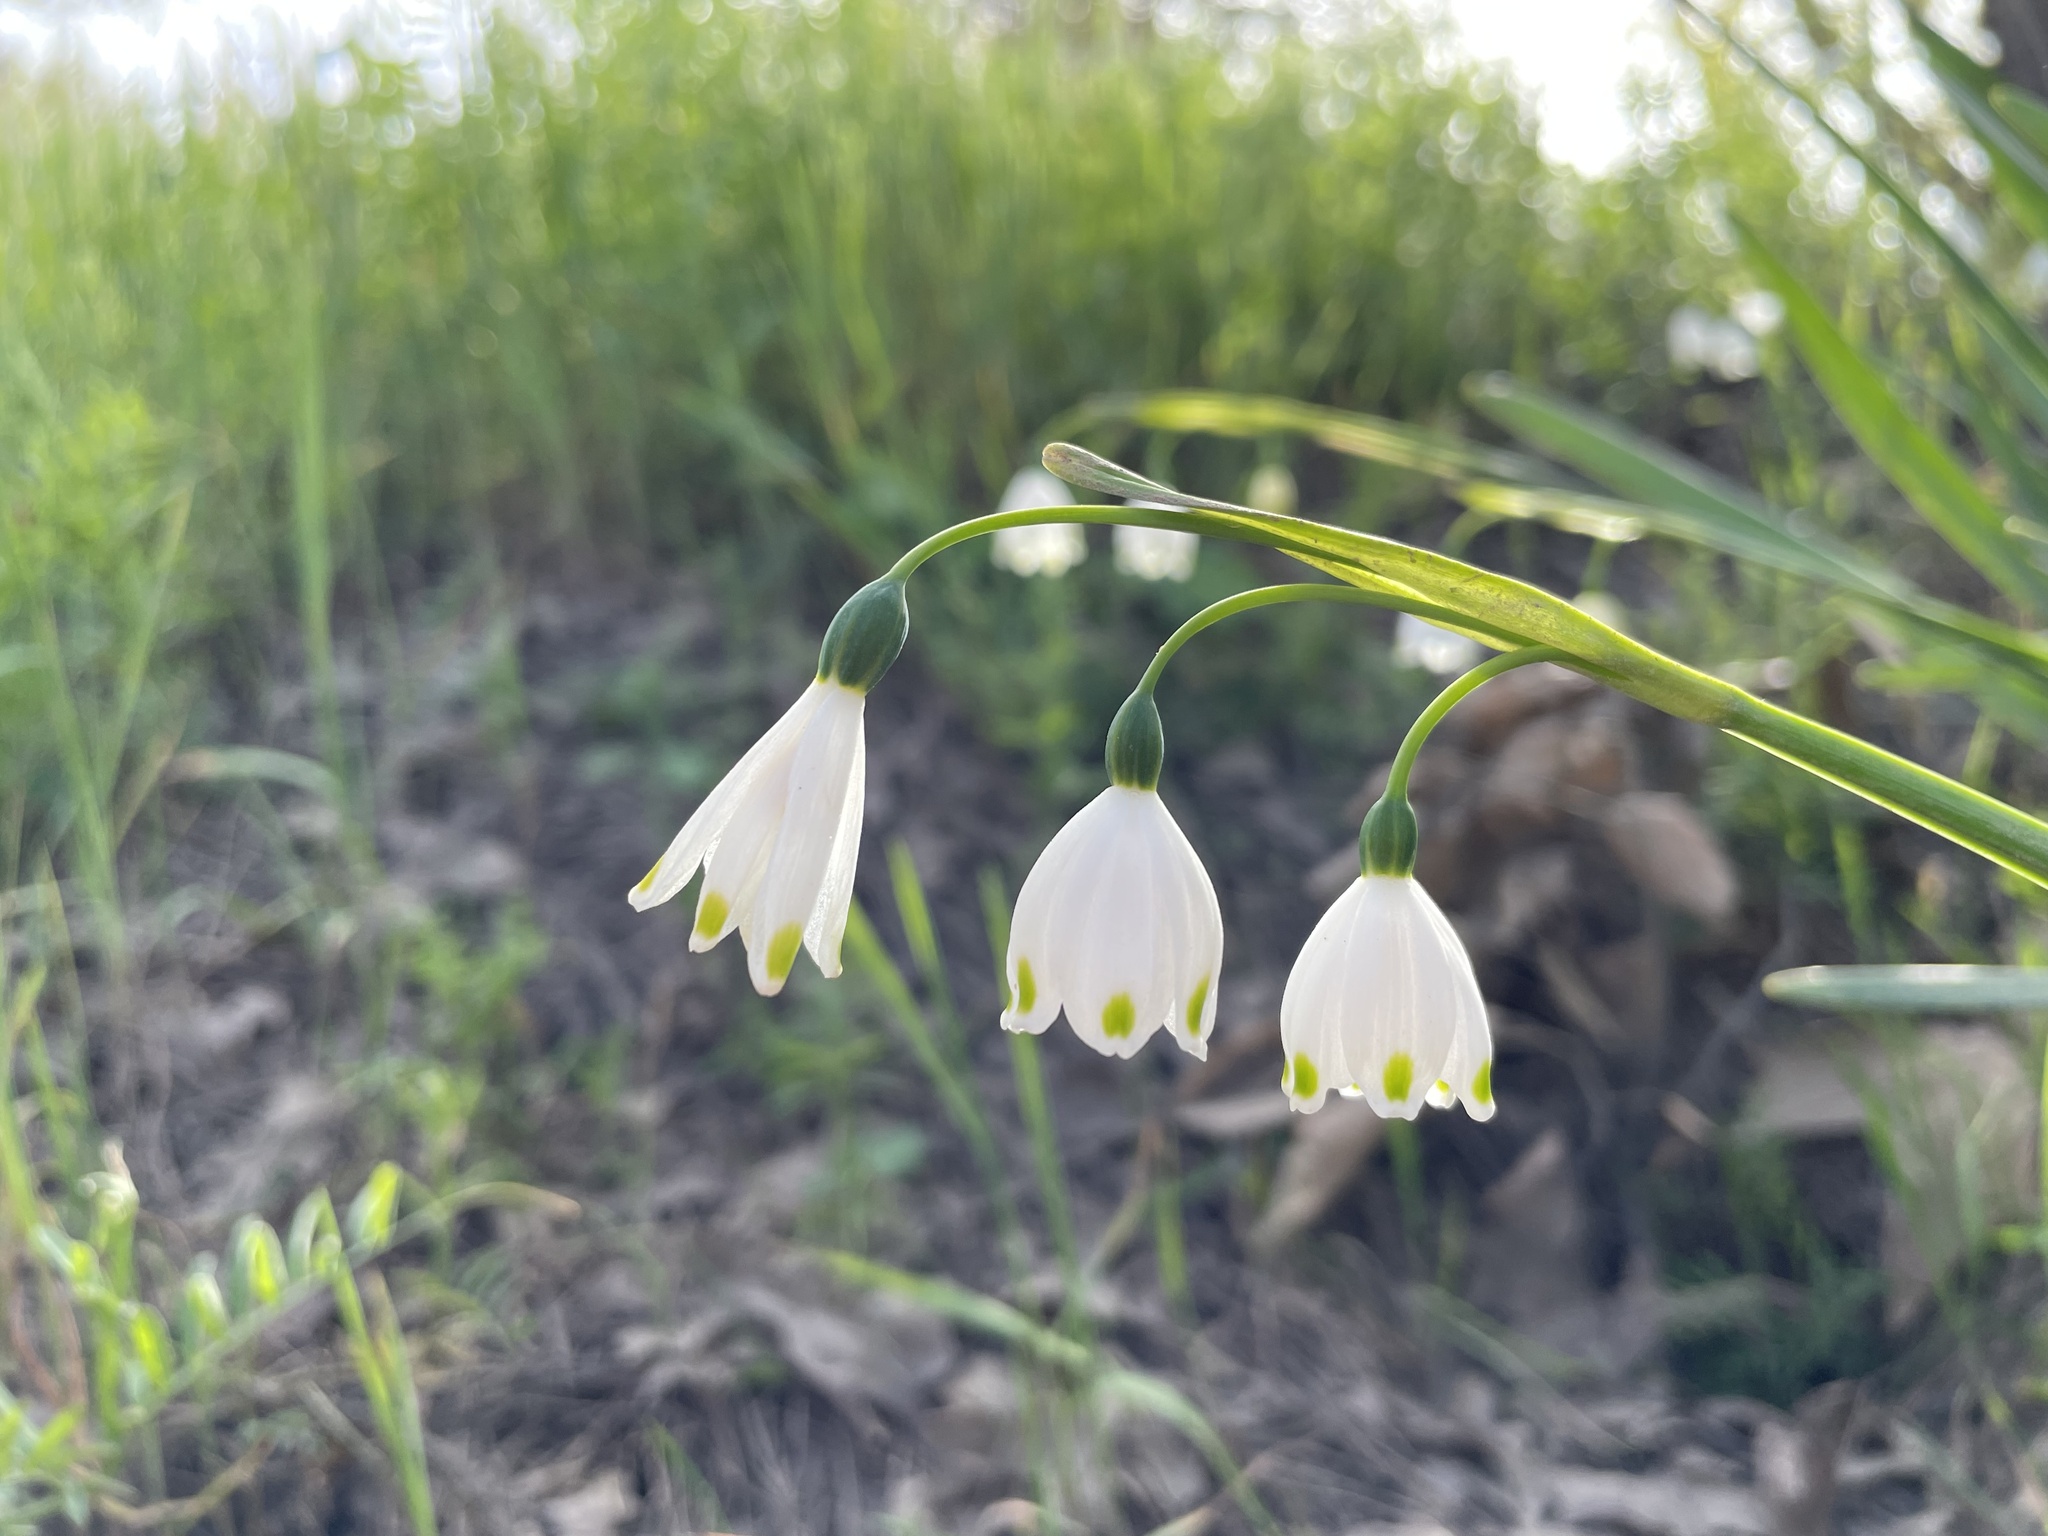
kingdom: Plantae
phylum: Tracheophyta
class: Liliopsida
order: Asparagales
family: Amaryllidaceae
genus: Leucojum
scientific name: Leucojum aestivum
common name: Summer snowflake
